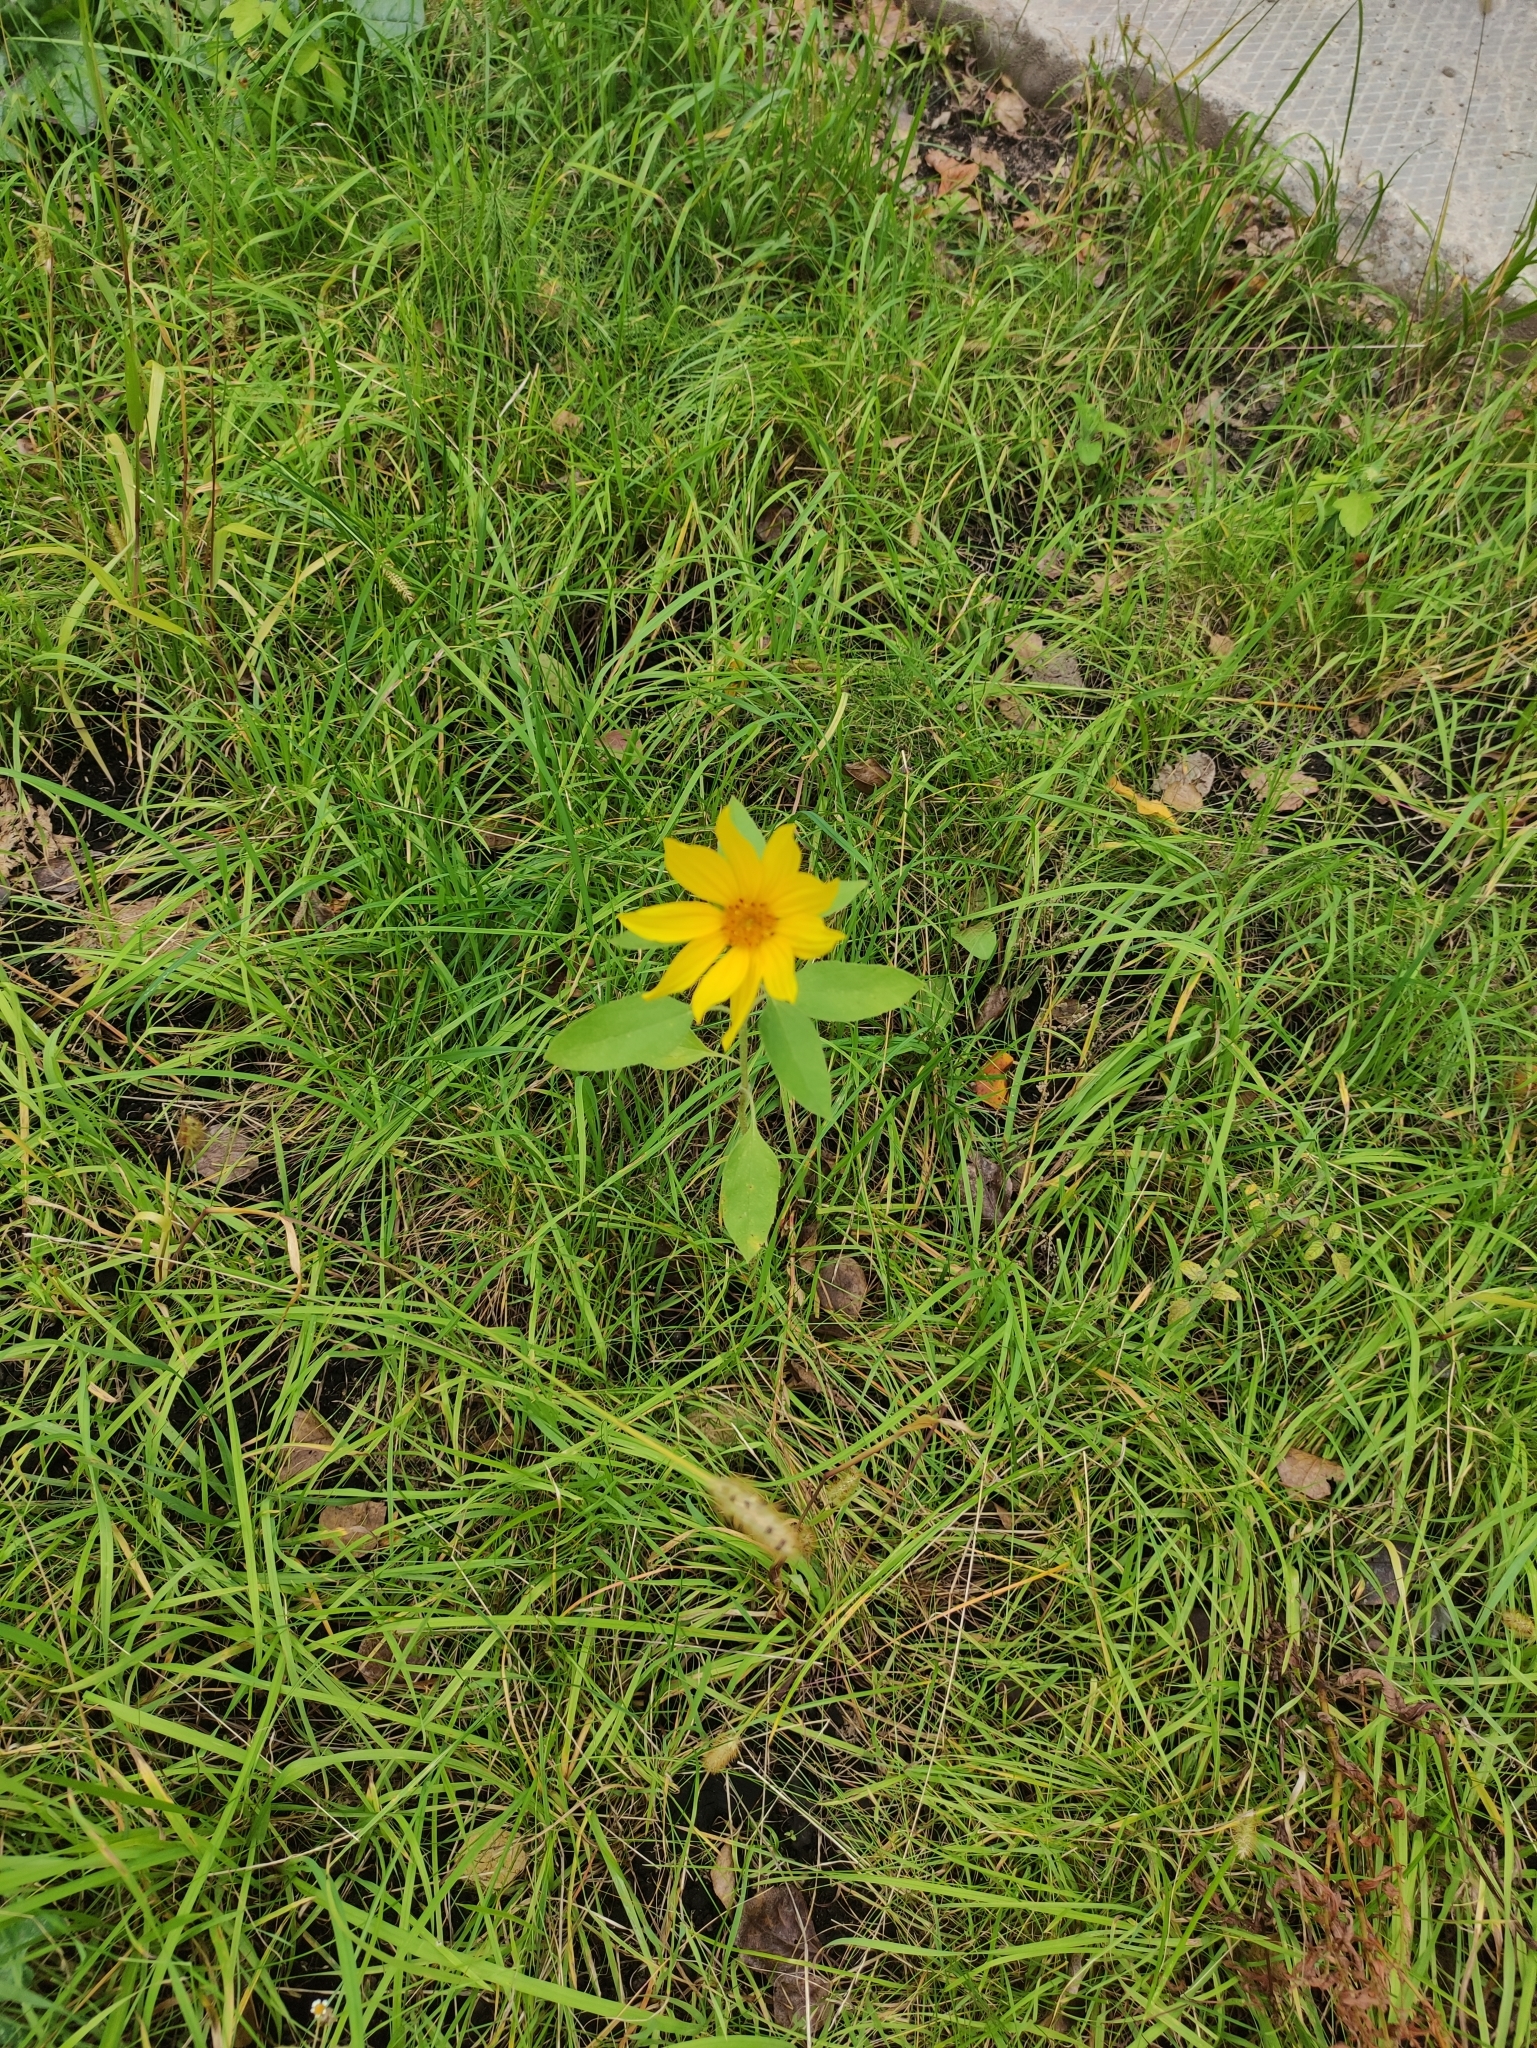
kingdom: Plantae
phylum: Tracheophyta
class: Magnoliopsida
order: Asterales
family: Asteraceae
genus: Helianthus
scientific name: Helianthus annuus
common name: Sunflower
